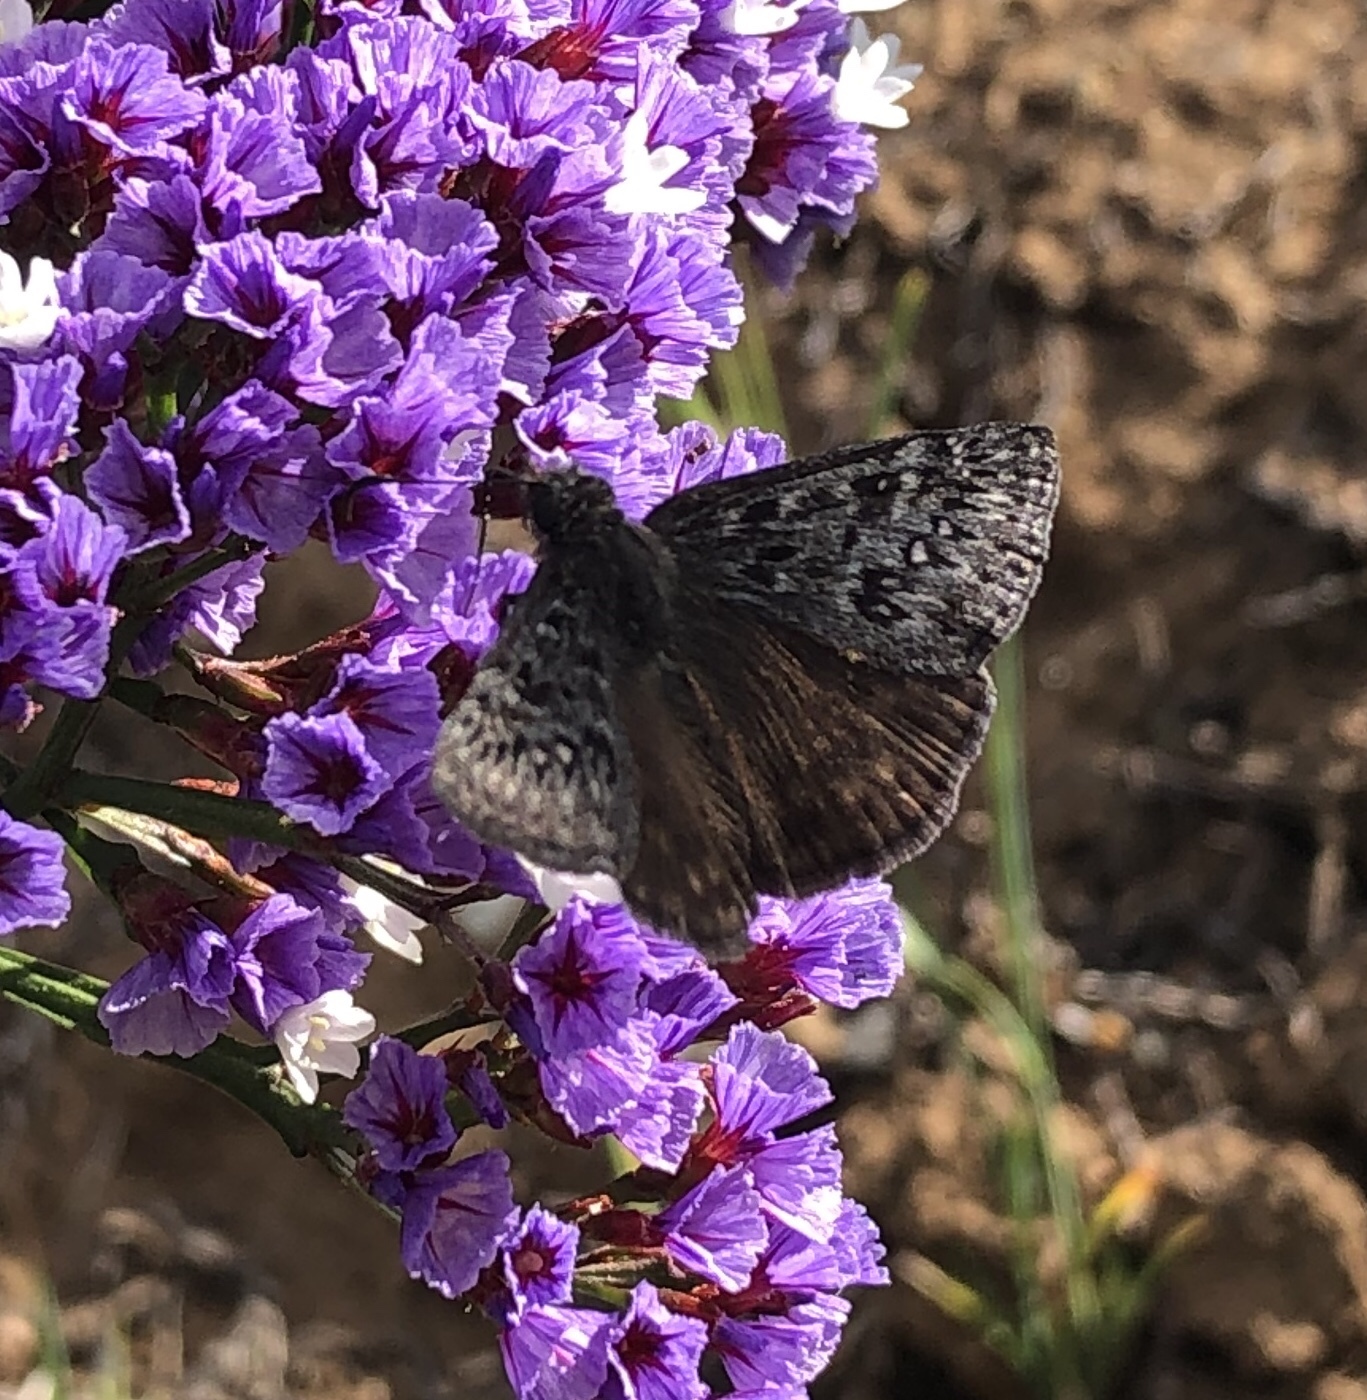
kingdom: Animalia
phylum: Arthropoda
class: Insecta
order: Lepidoptera
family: Hesperiidae
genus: Erynnis
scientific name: Erynnis propertius
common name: Propertius duskywing
